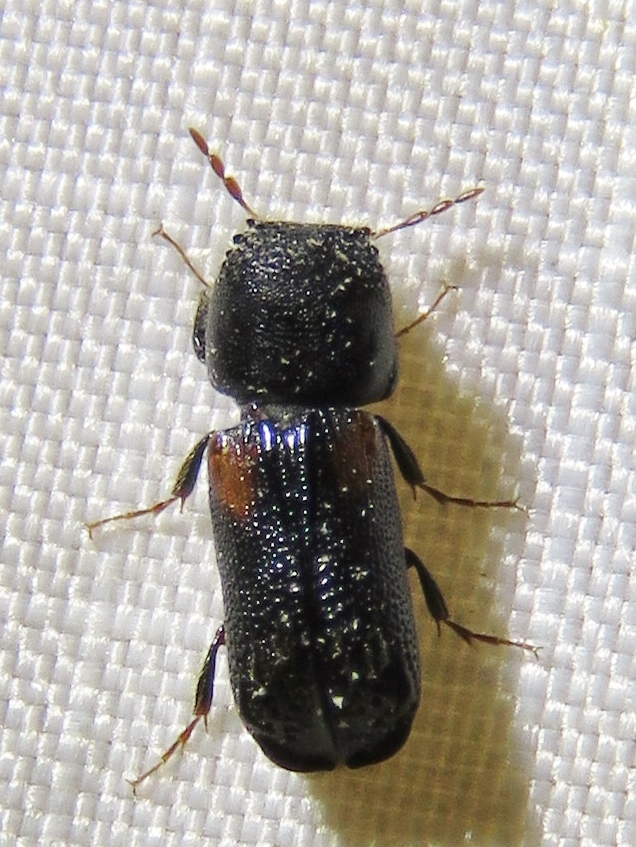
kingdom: Animalia
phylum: Arthropoda
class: Insecta
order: Coleoptera
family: Bostrichidae
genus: Xylobiops
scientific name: Xylobiops basilaris
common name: Red-shouldered bostrichid
